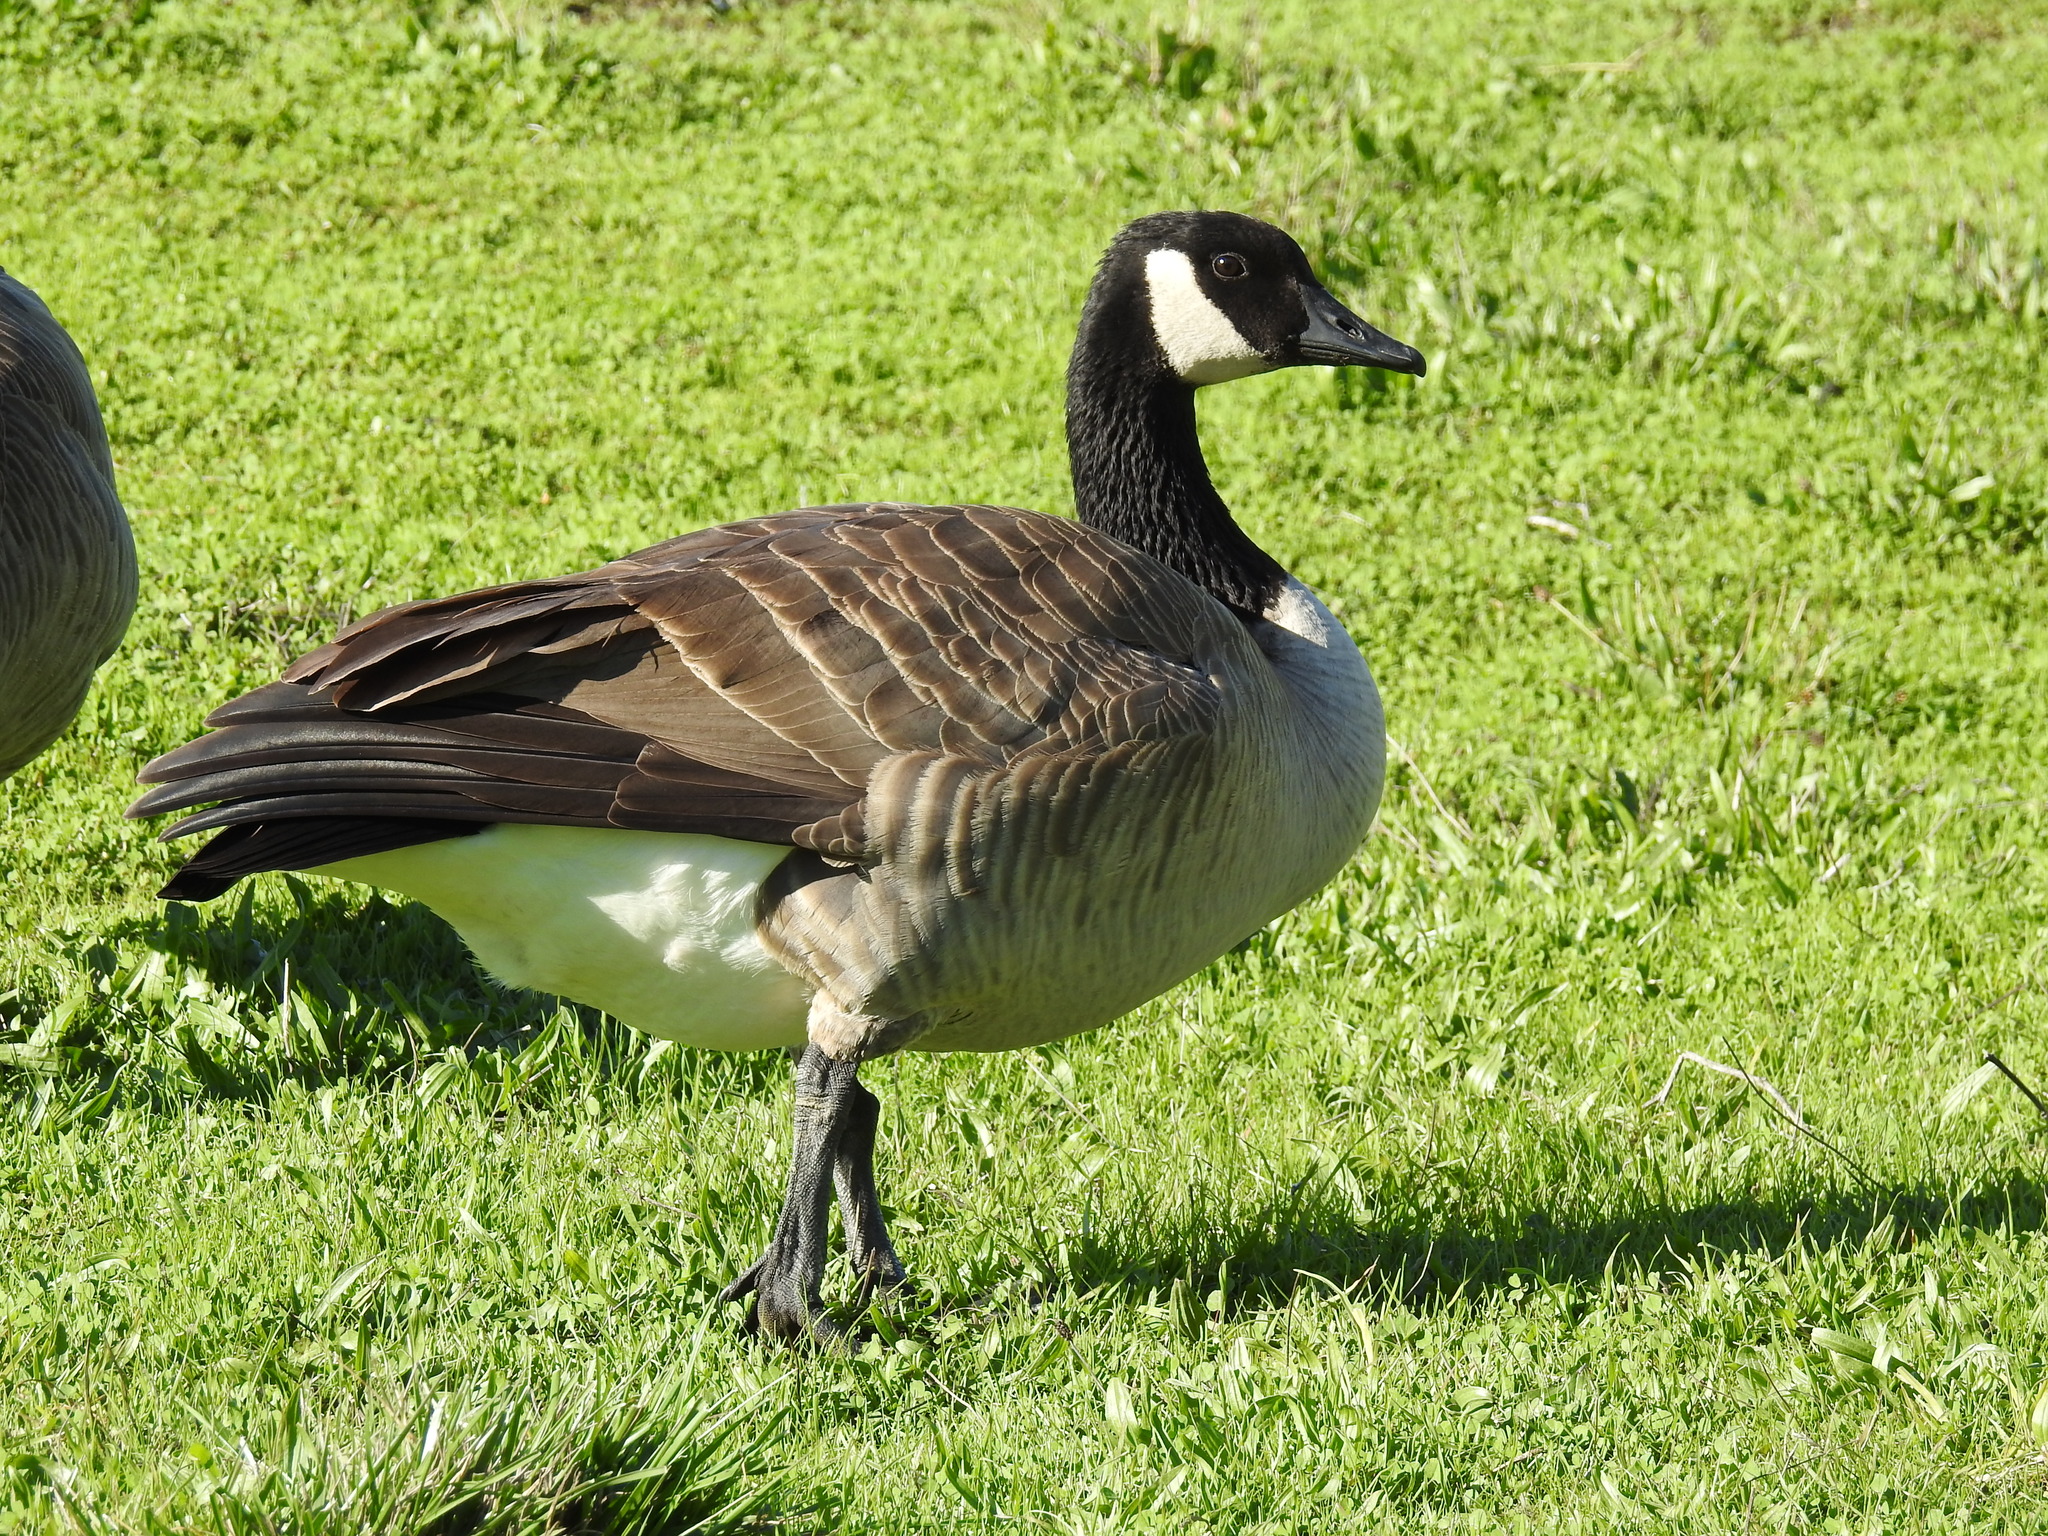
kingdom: Animalia
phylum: Chordata
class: Aves
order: Anseriformes
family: Anatidae
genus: Branta
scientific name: Branta canadensis
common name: Canada goose
